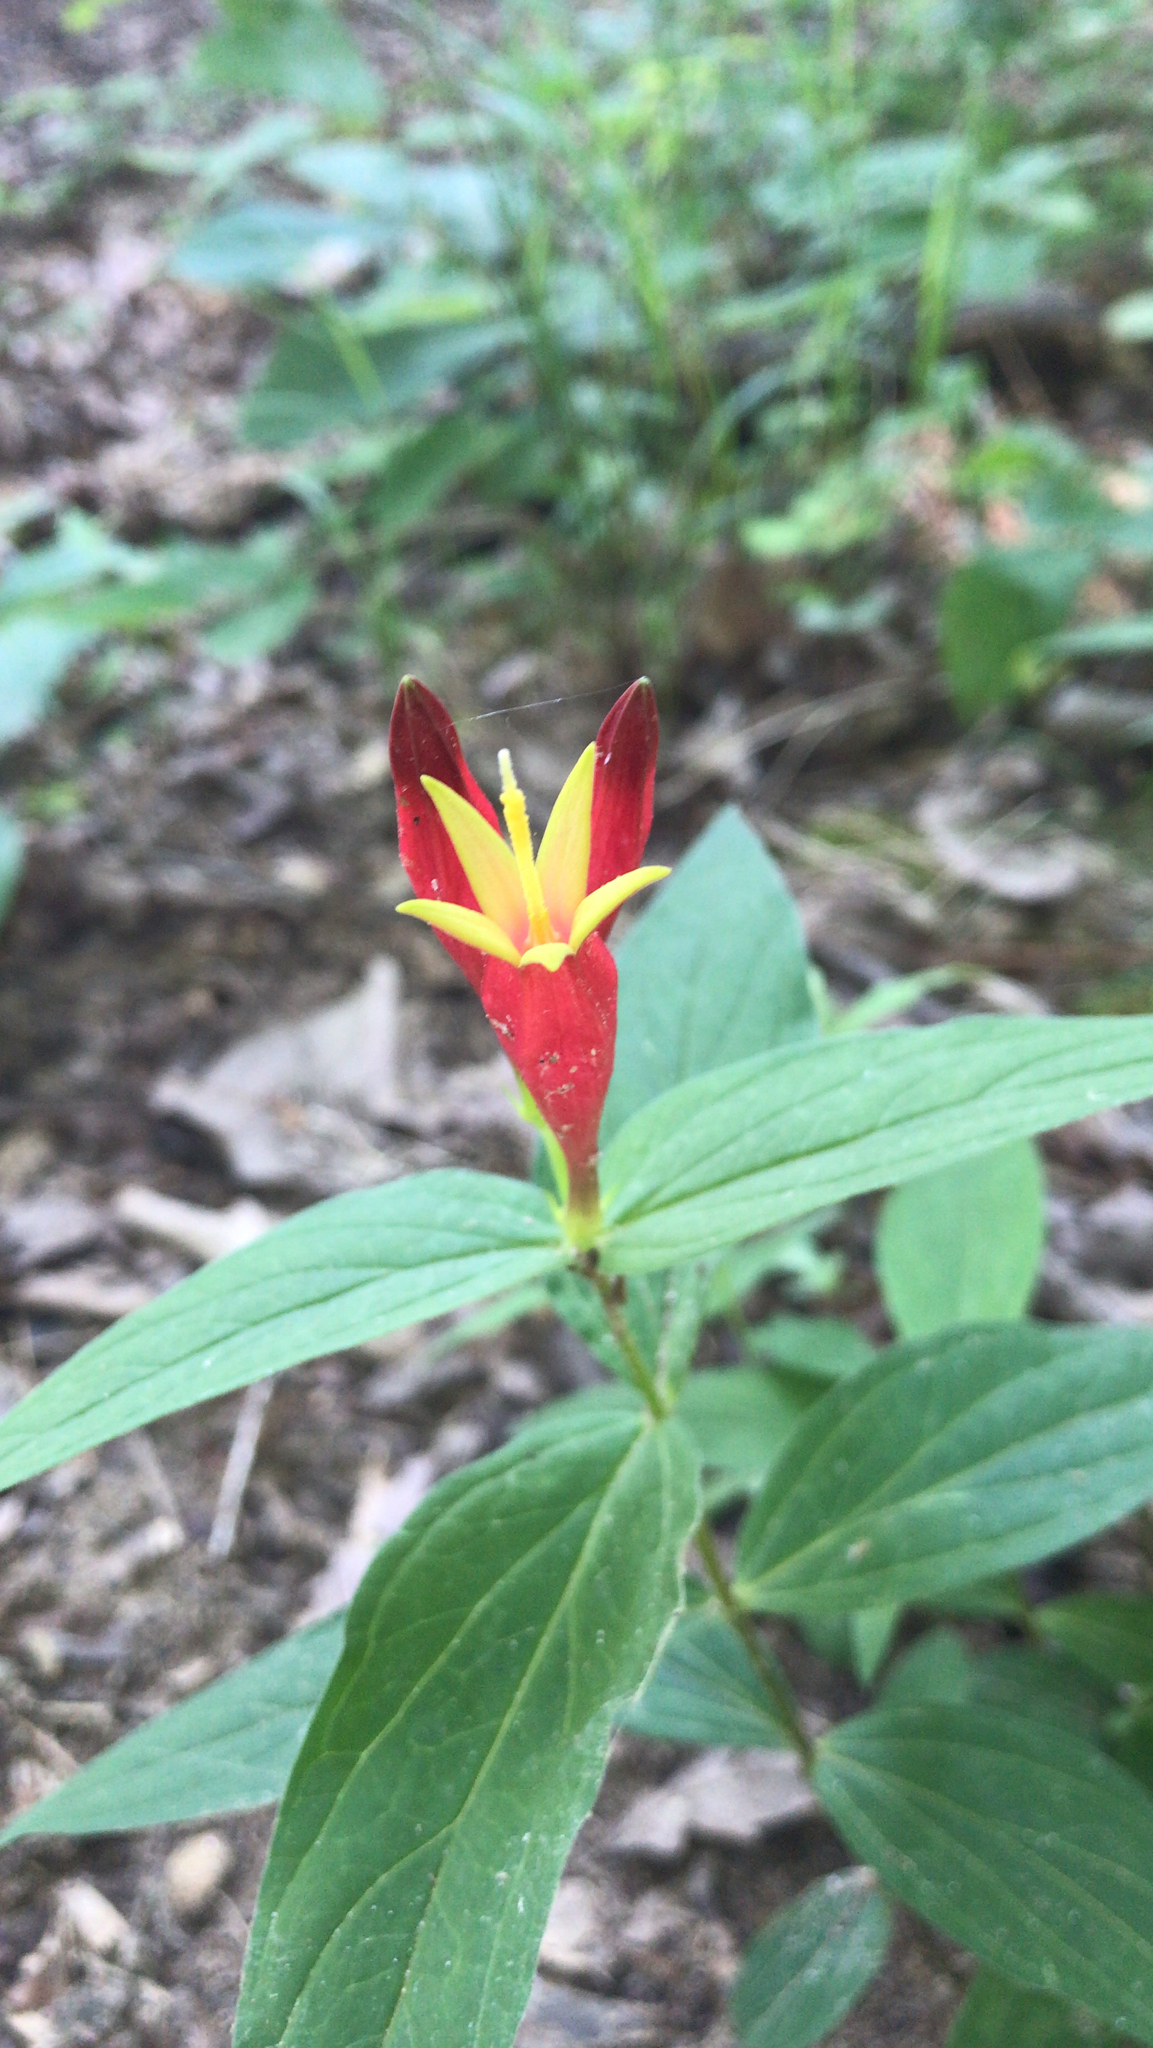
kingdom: Plantae
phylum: Tracheophyta
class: Magnoliopsida
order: Gentianales
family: Loganiaceae
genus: Spigelia
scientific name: Spigelia marilandica
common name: Indian-pink
